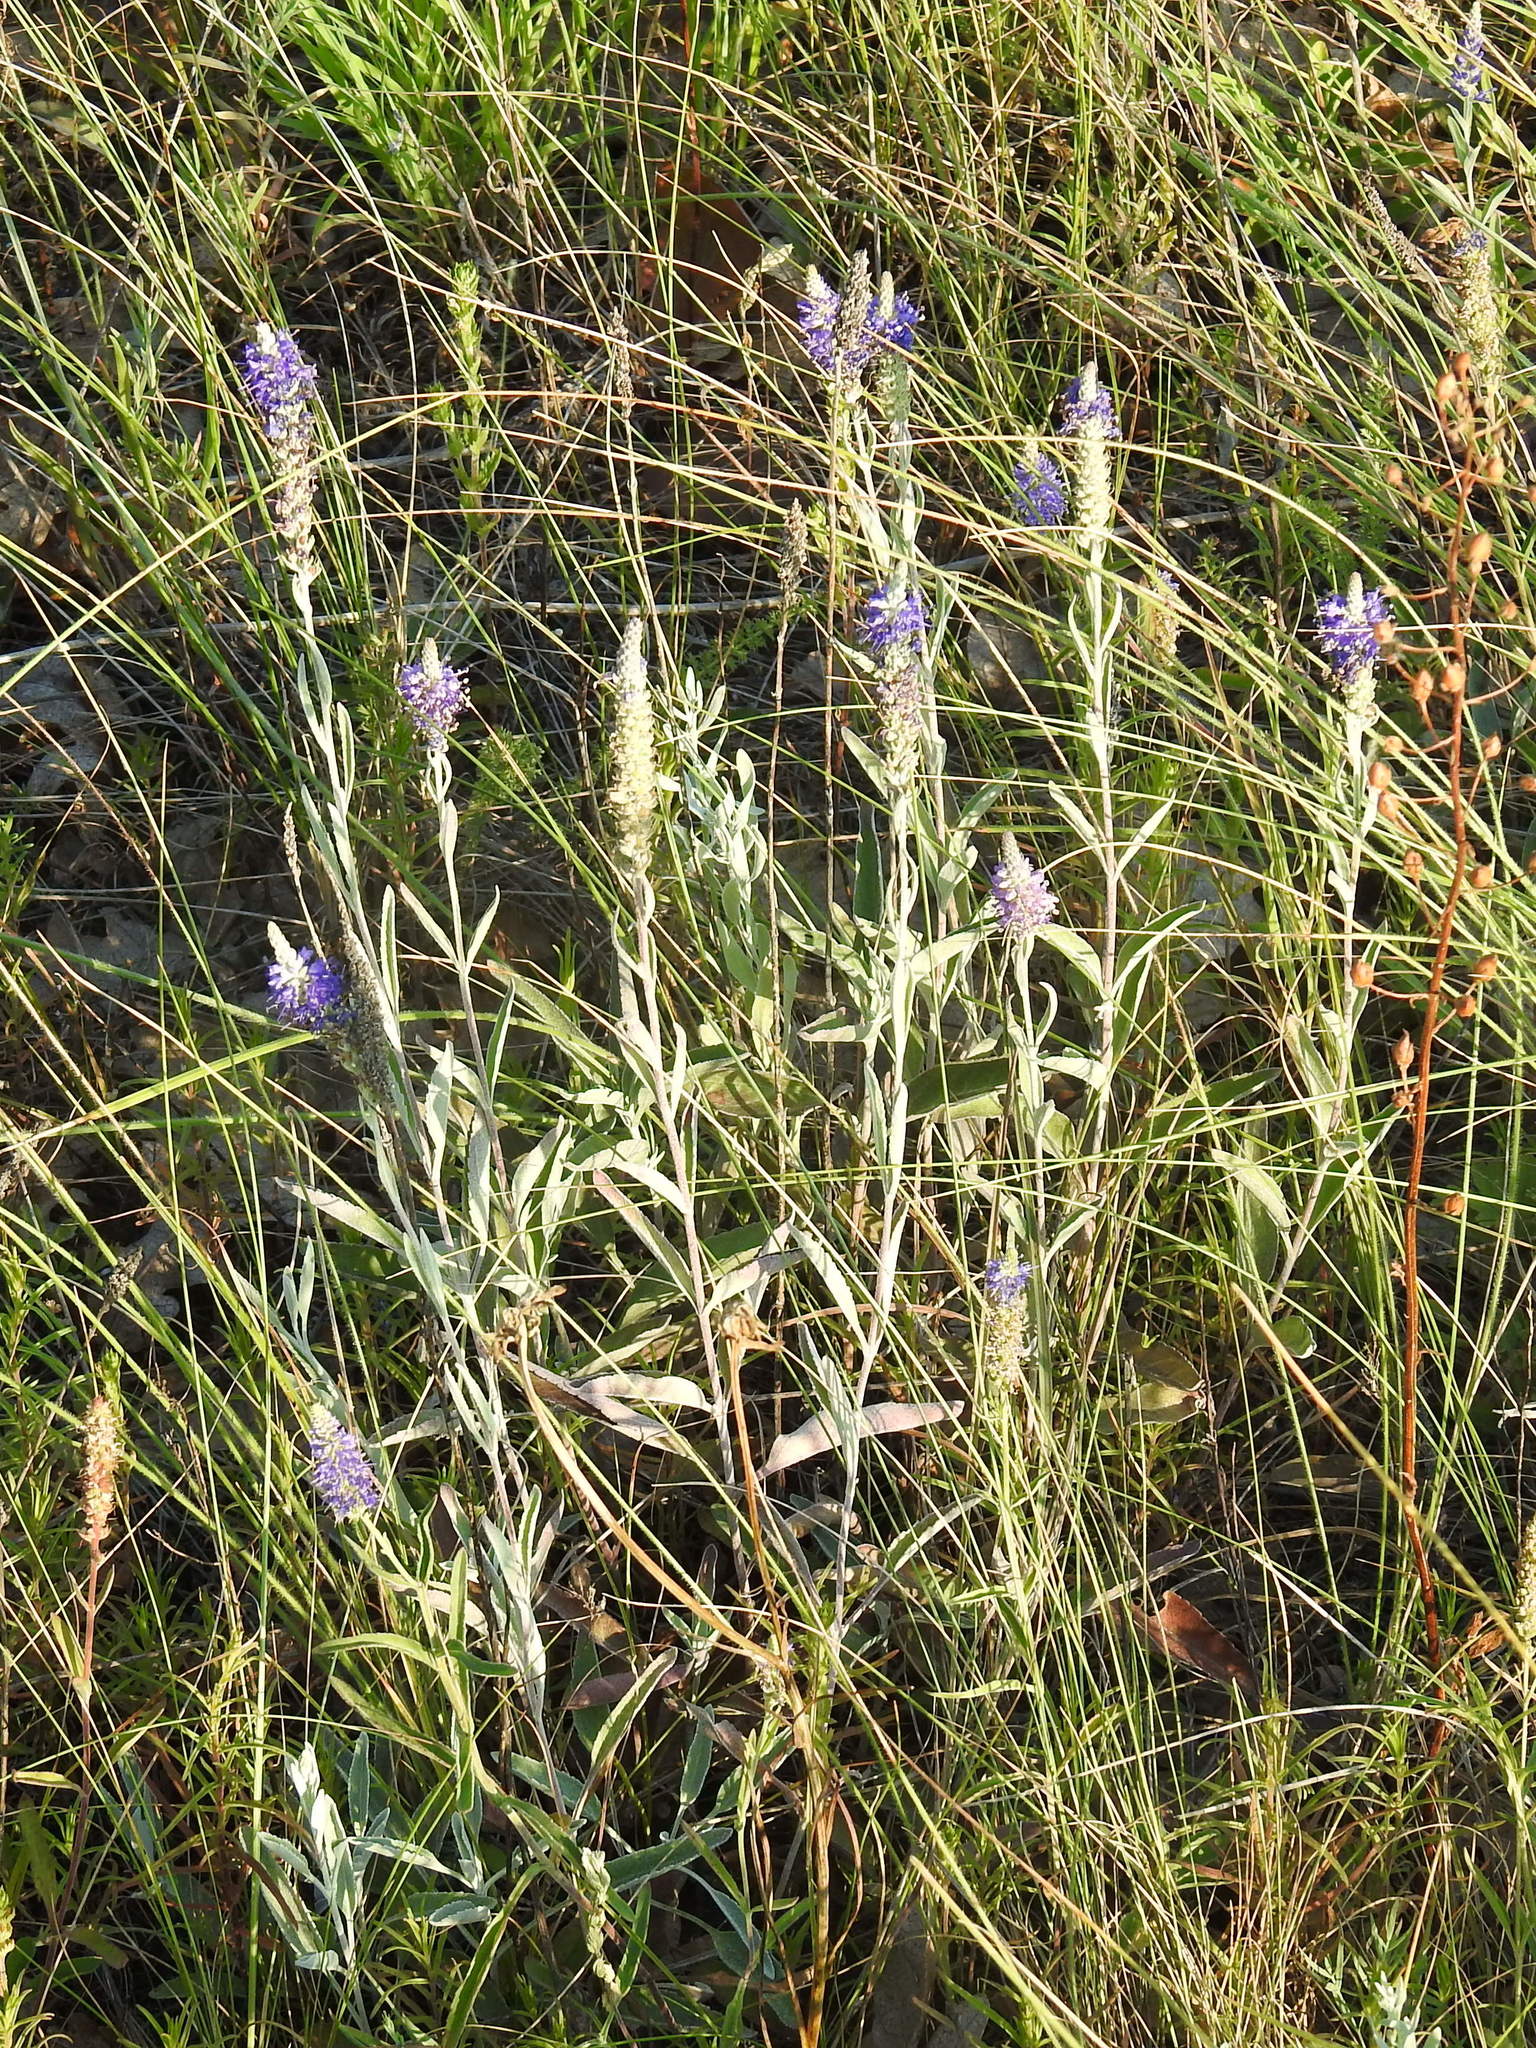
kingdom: Plantae
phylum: Tracheophyta
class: Magnoliopsida
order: Lamiales
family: Plantaginaceae
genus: Veronica
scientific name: Veronica incana
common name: Silver speedwell
